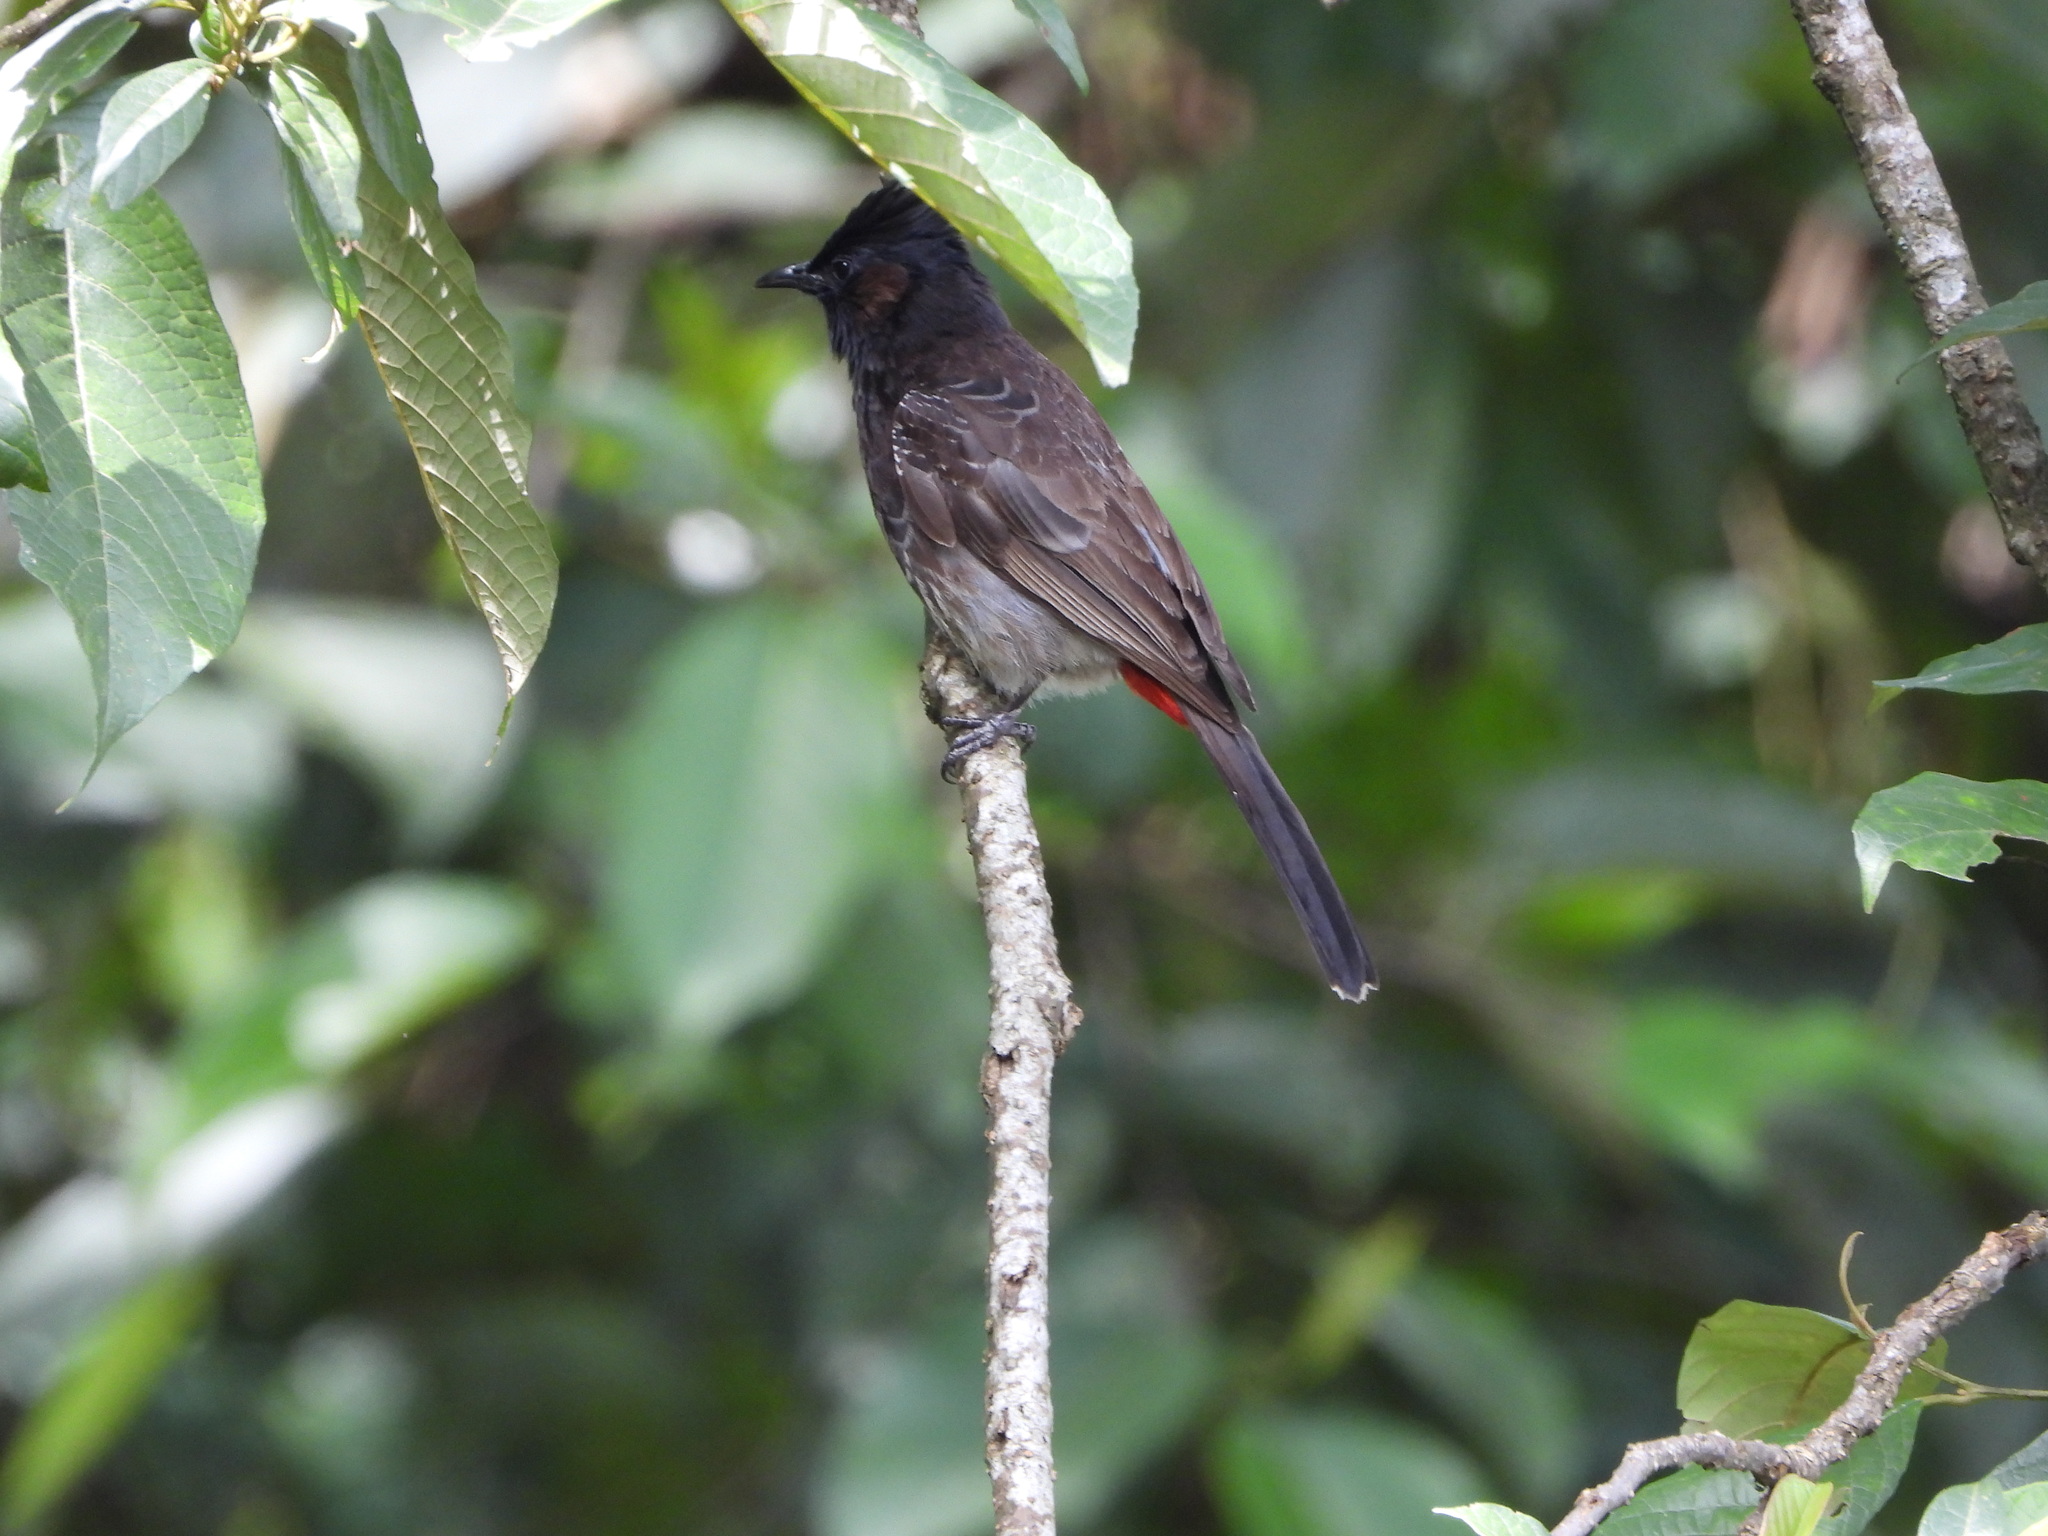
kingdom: Animalia
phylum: Chordata
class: Aves
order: Passeriformes
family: Pycnonotidae
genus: Pycnonotus
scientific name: Pycnonotus cafer
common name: Red-vented bulbul
